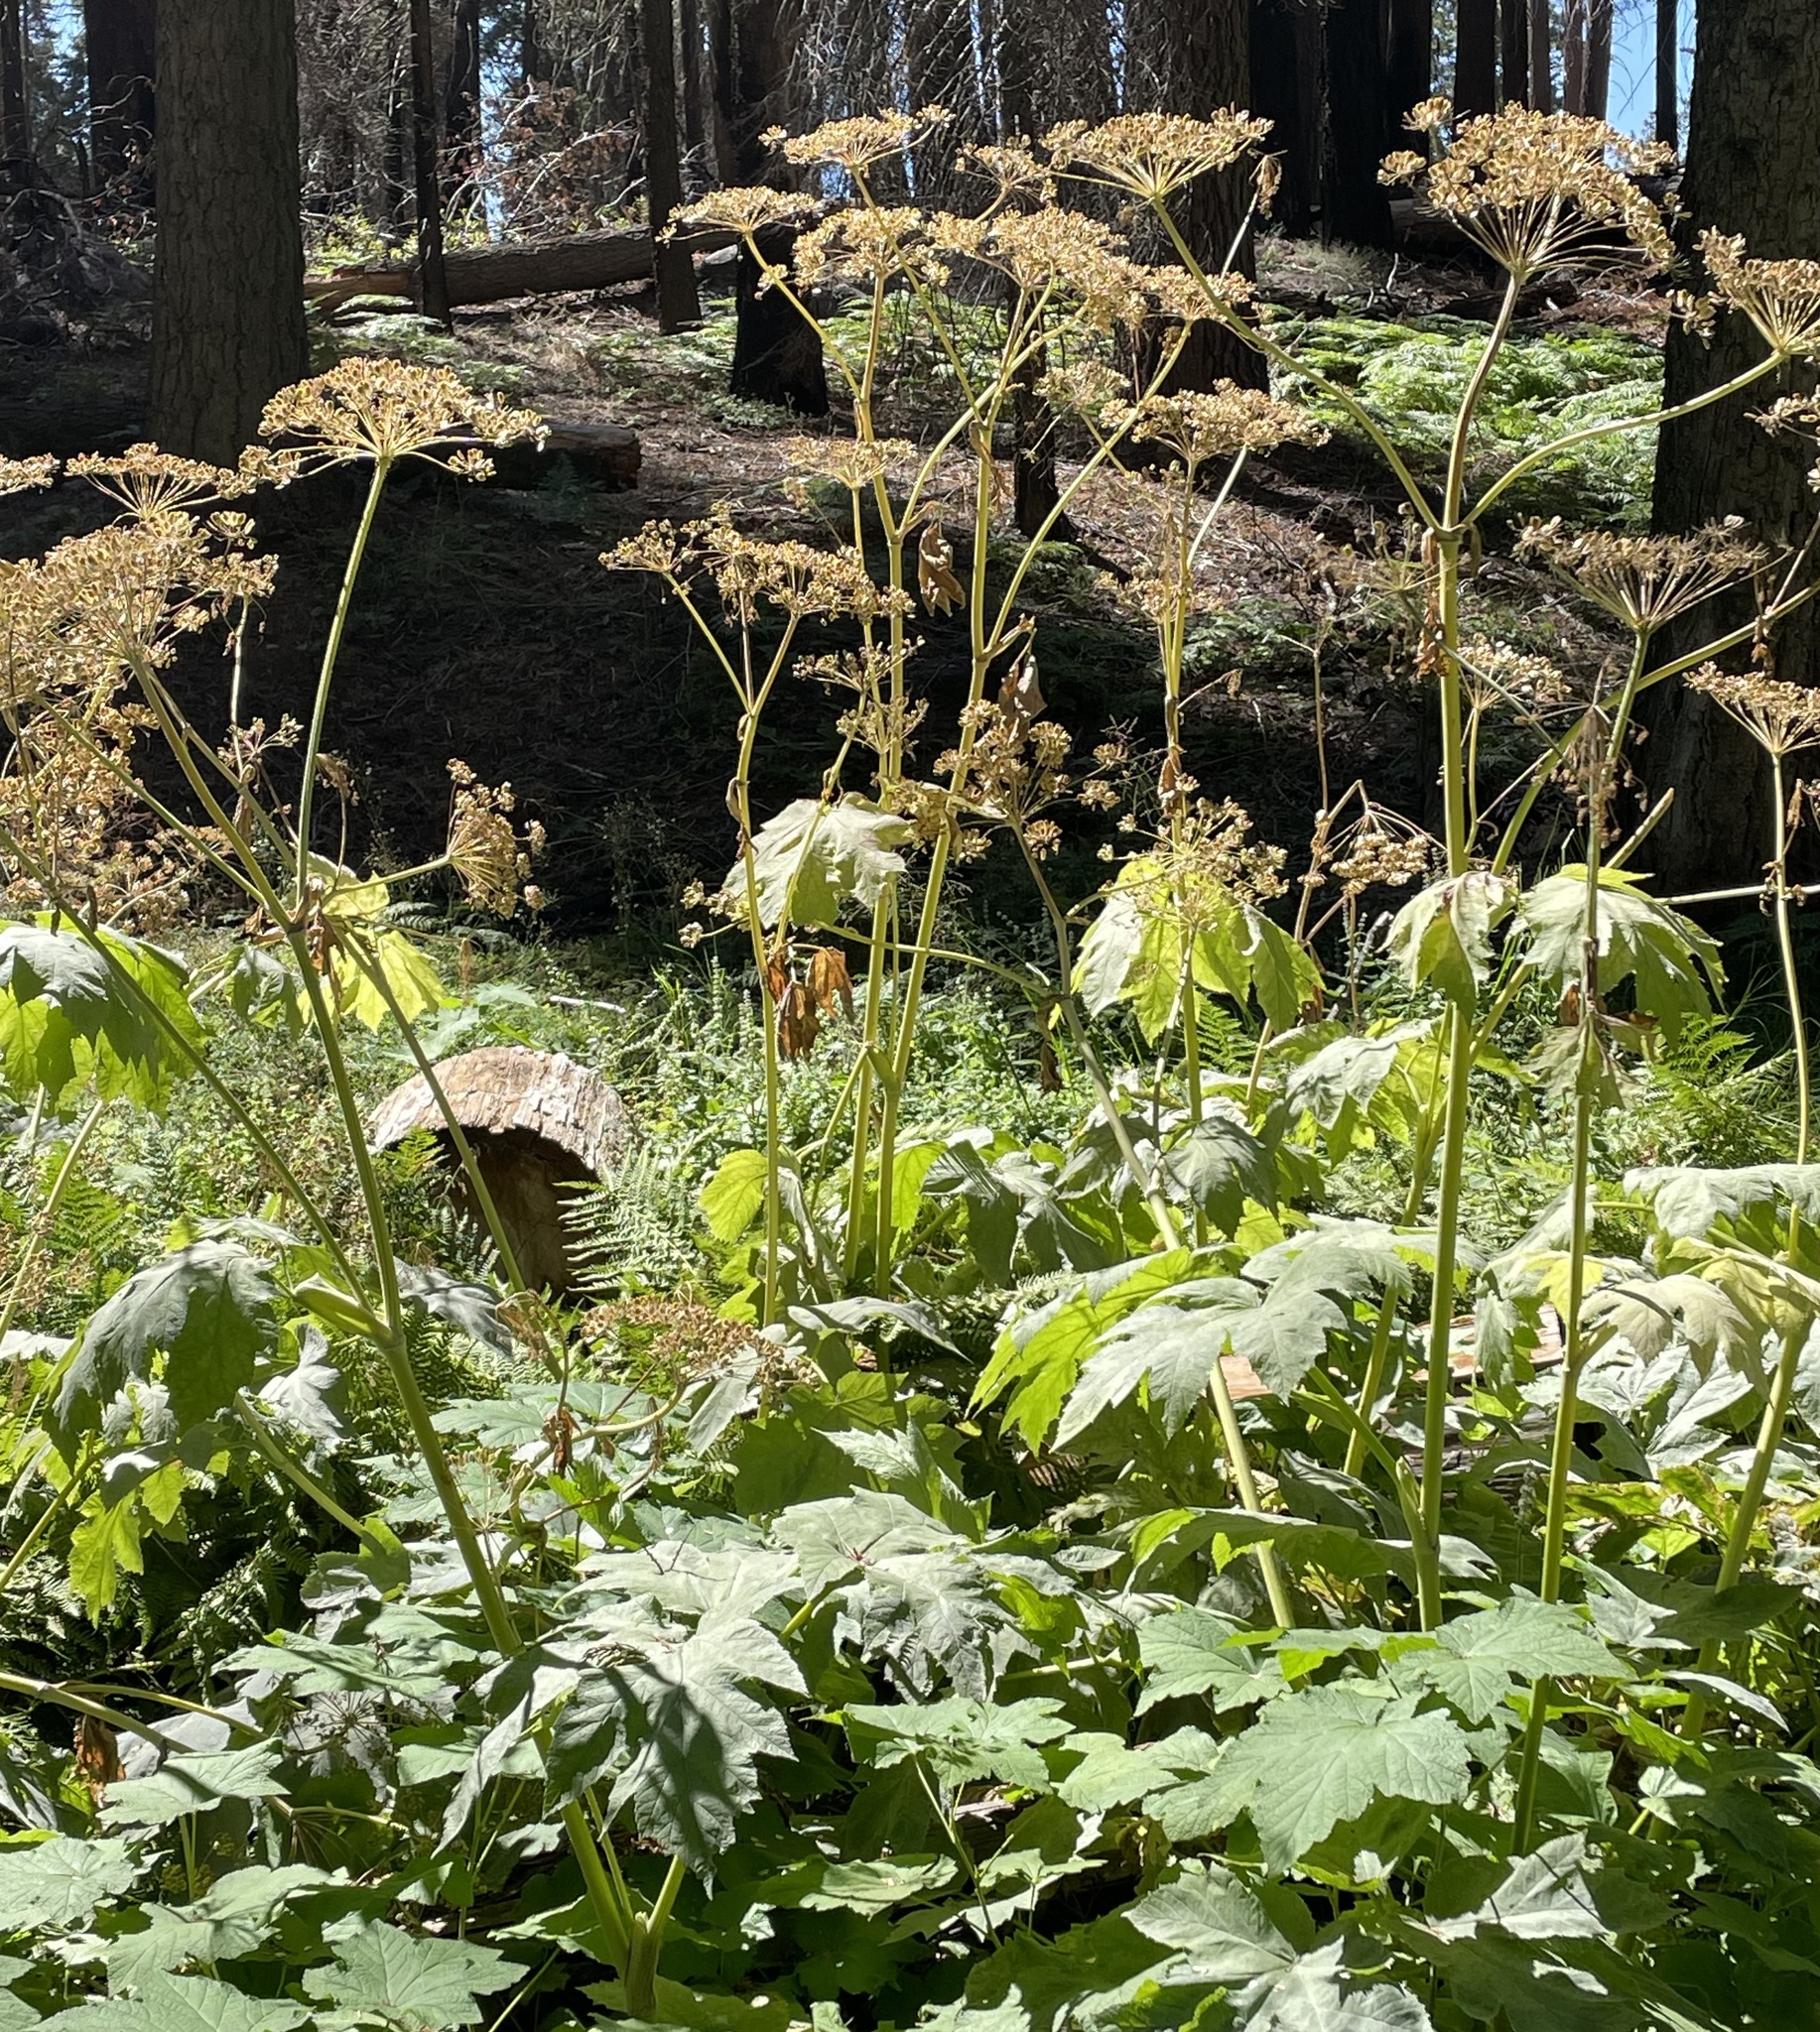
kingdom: Plantae
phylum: Tracheophyta
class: Magnoliopsida
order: Apiales
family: Apiaceae
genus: Heracleum
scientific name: Heracleum maximum
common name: American cow parsnip
